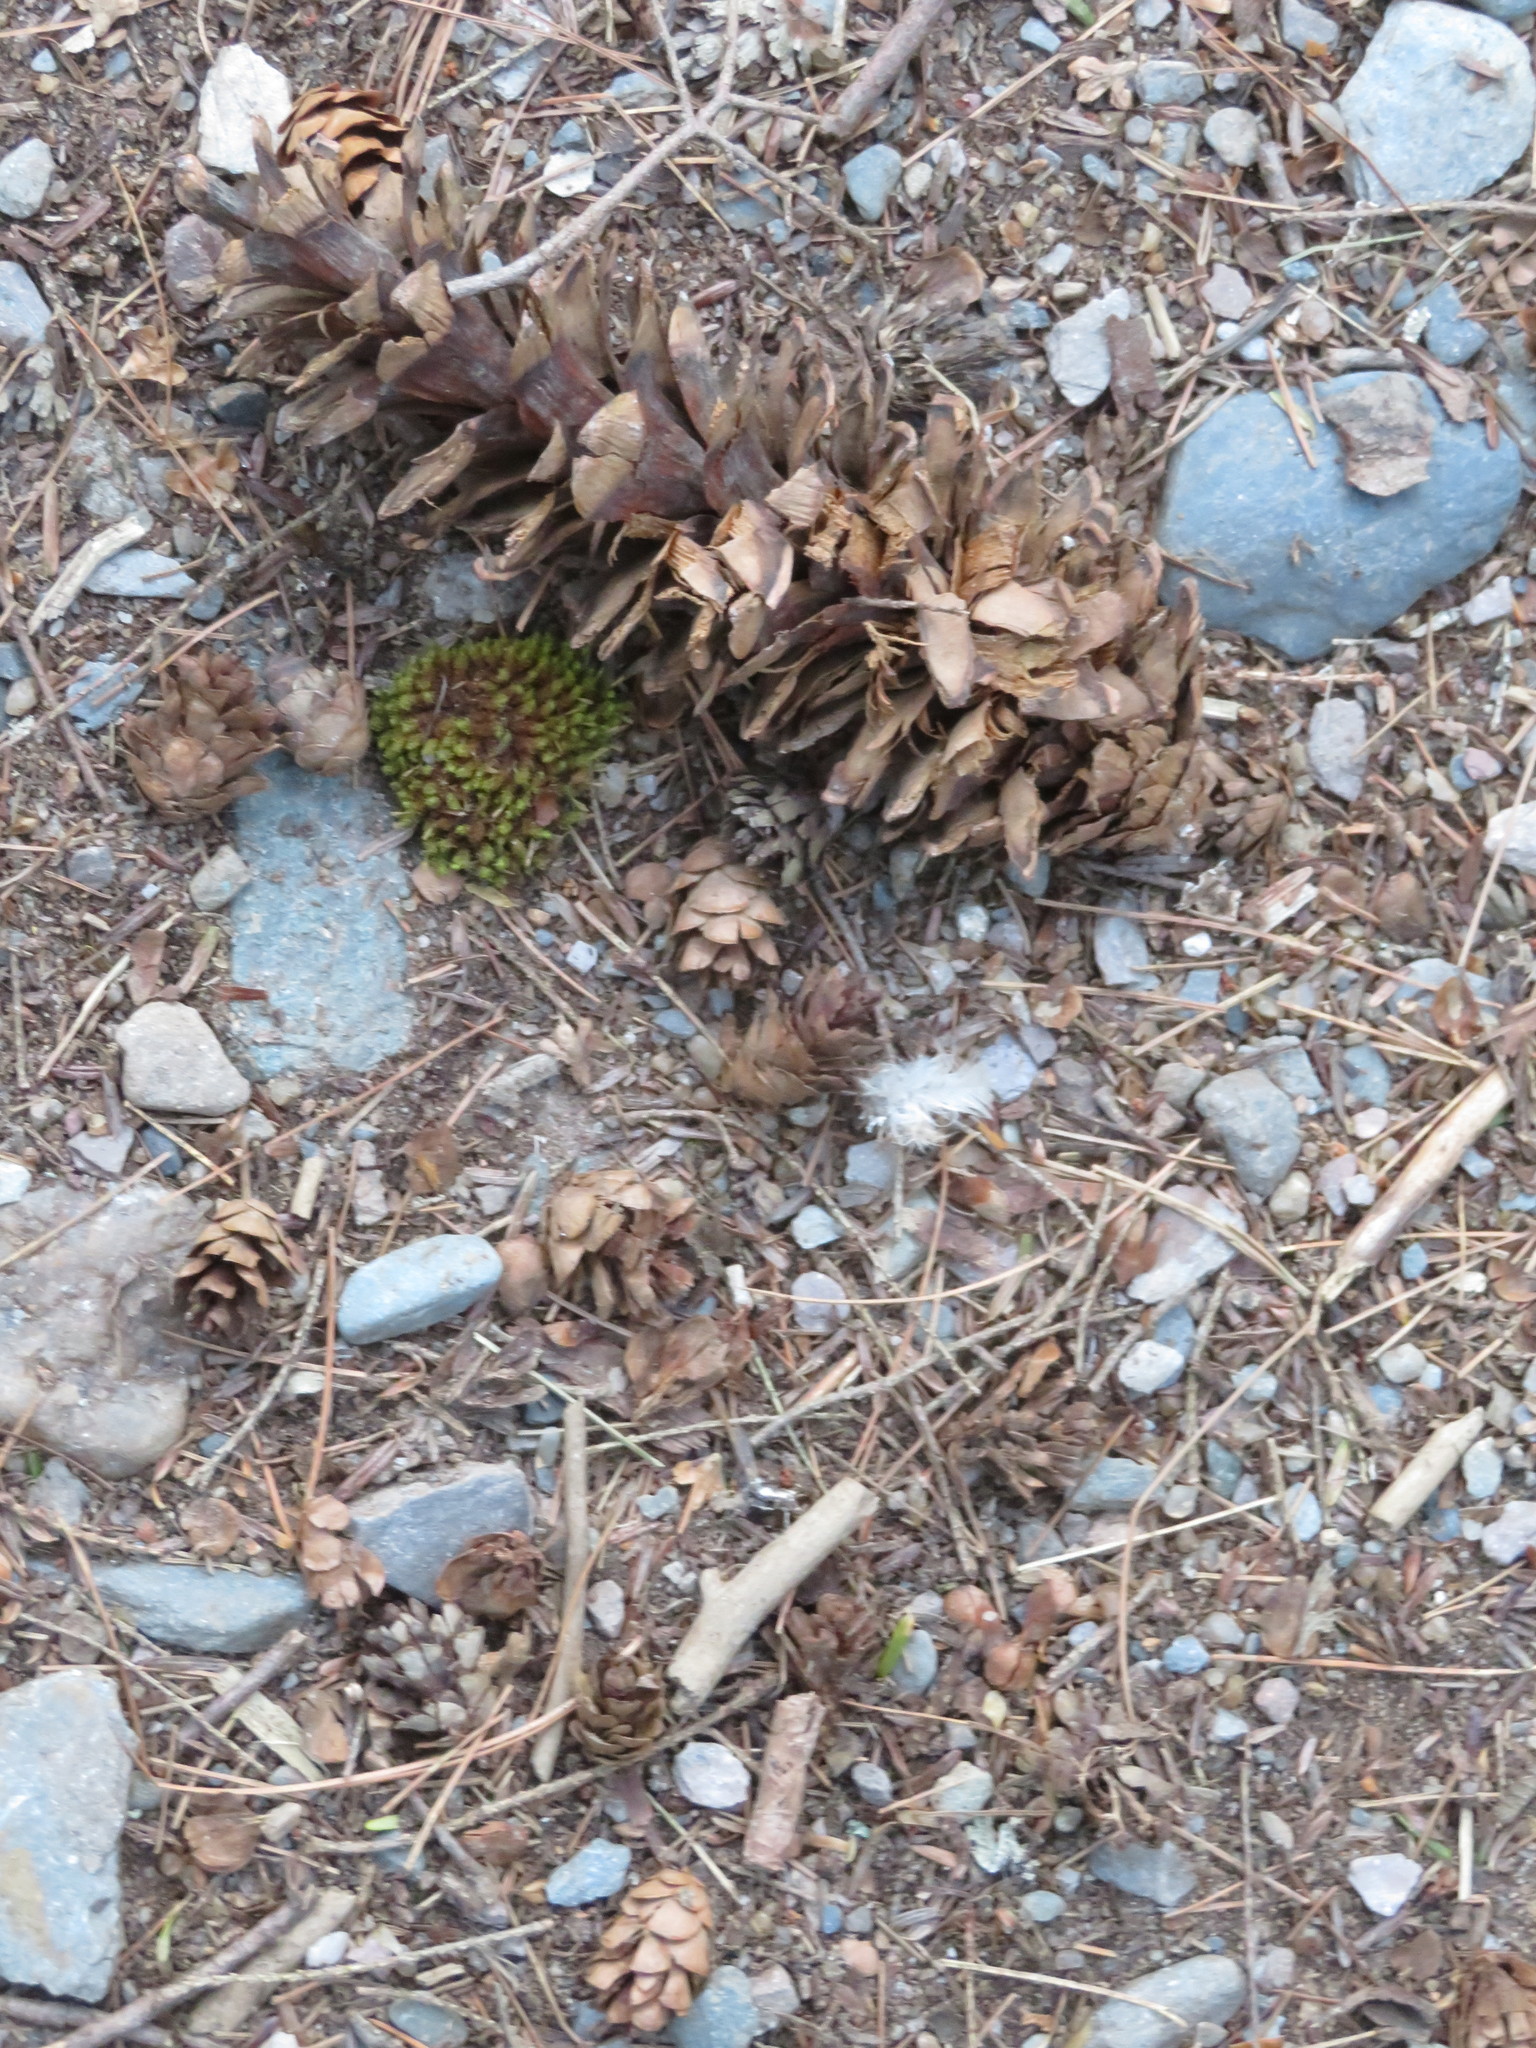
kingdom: Plantae
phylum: Tracheophyta
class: Pinopsida
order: Pinales
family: Pinaceae
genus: Pinus
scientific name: Pinus strobus
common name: Weymouth pine
